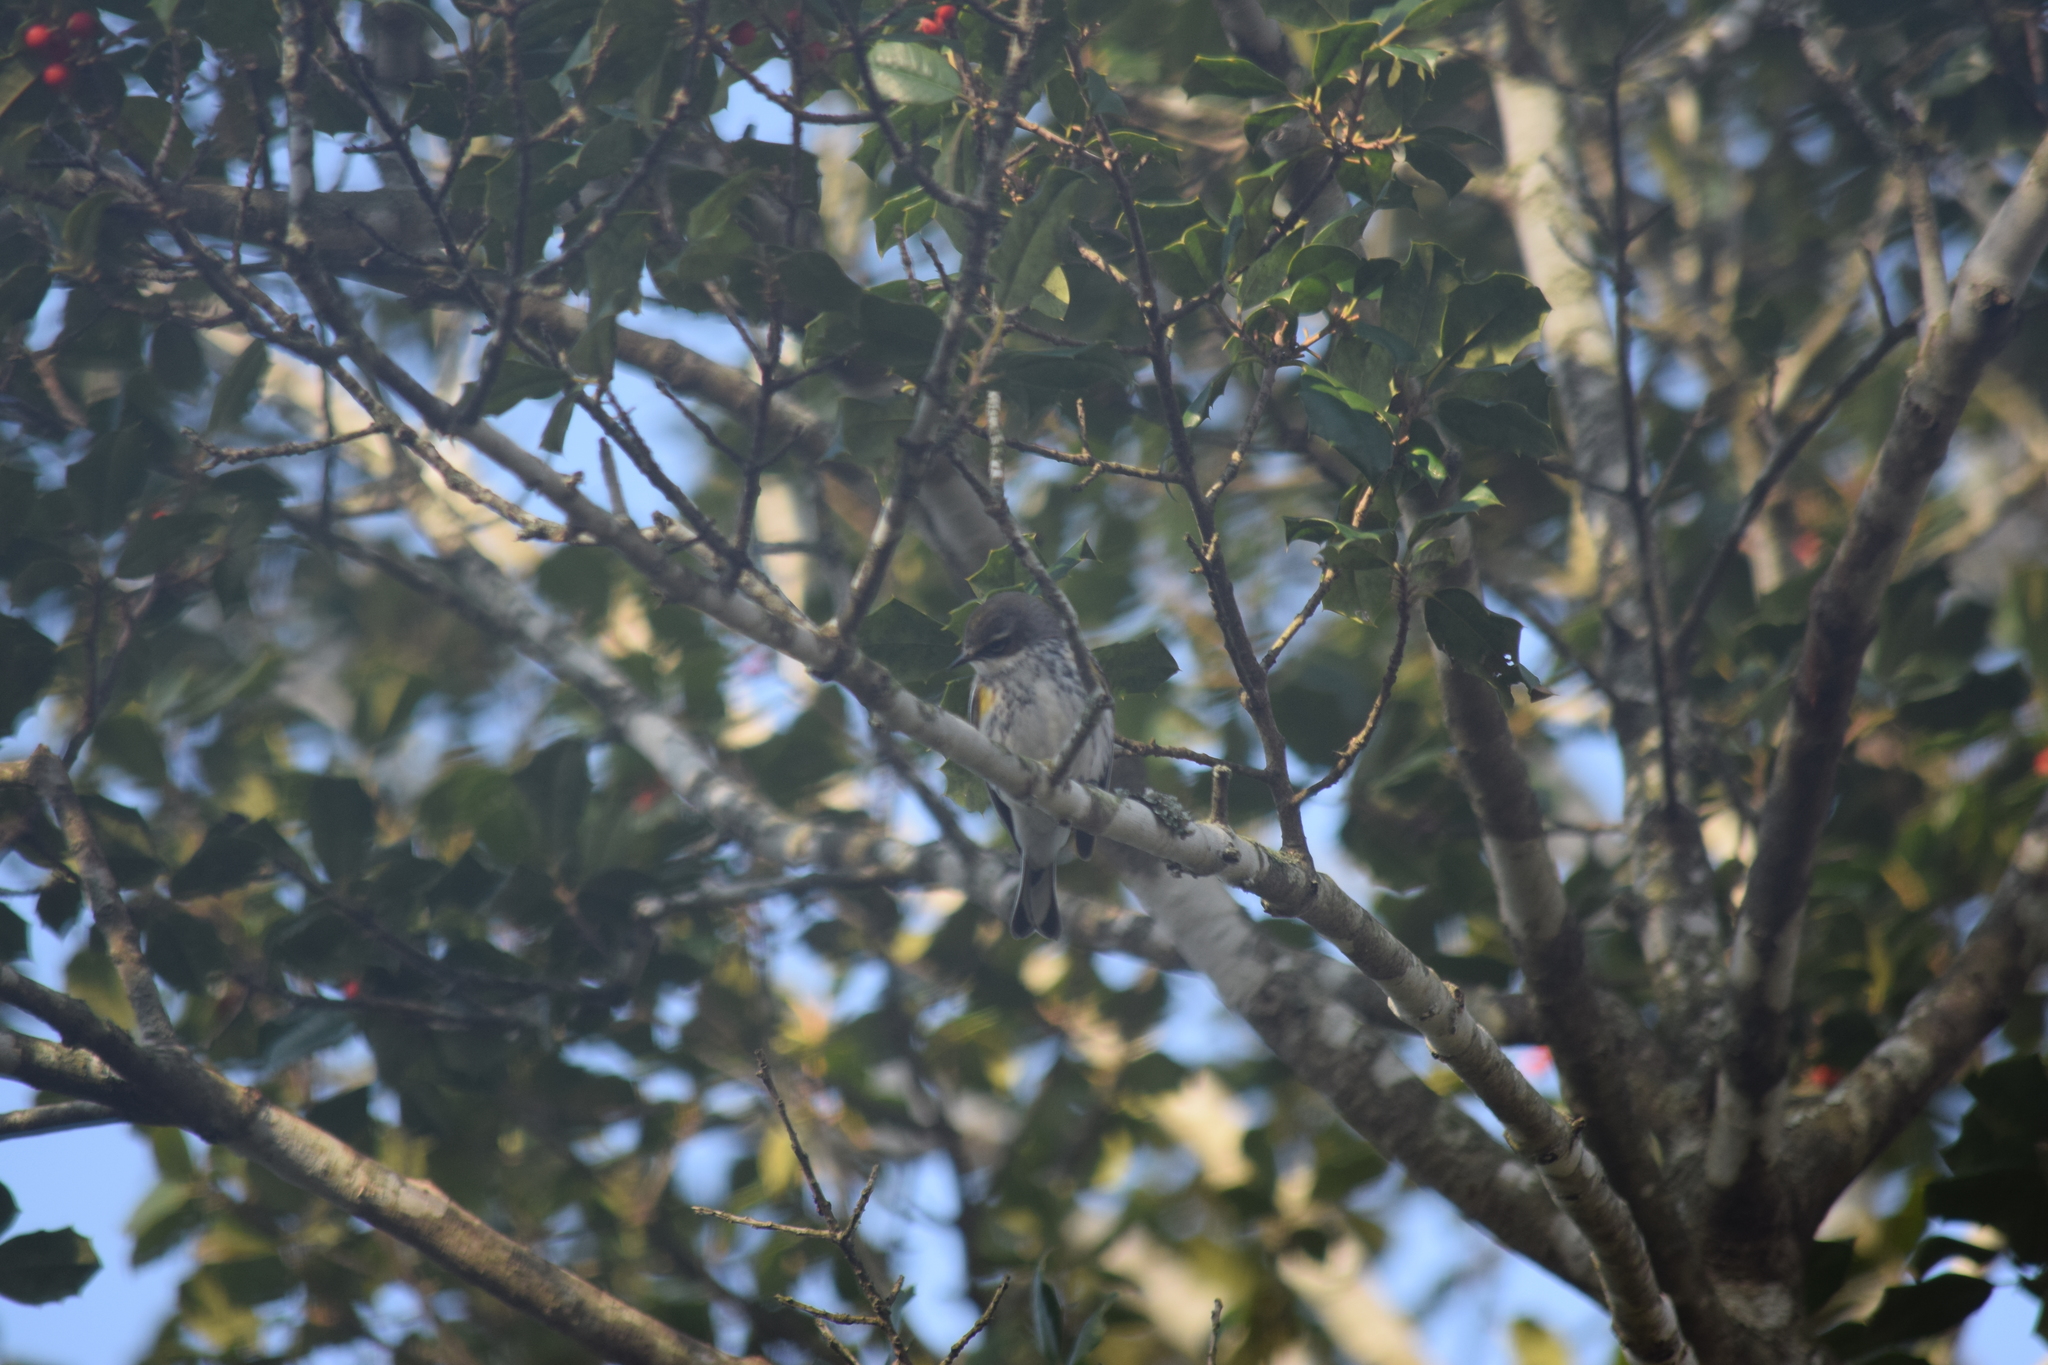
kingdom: Animalia
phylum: Chordata
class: Aves
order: Passeriformes
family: Parulidae
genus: Setophaga
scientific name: Setophaga coronata
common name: Myrtle warbler
